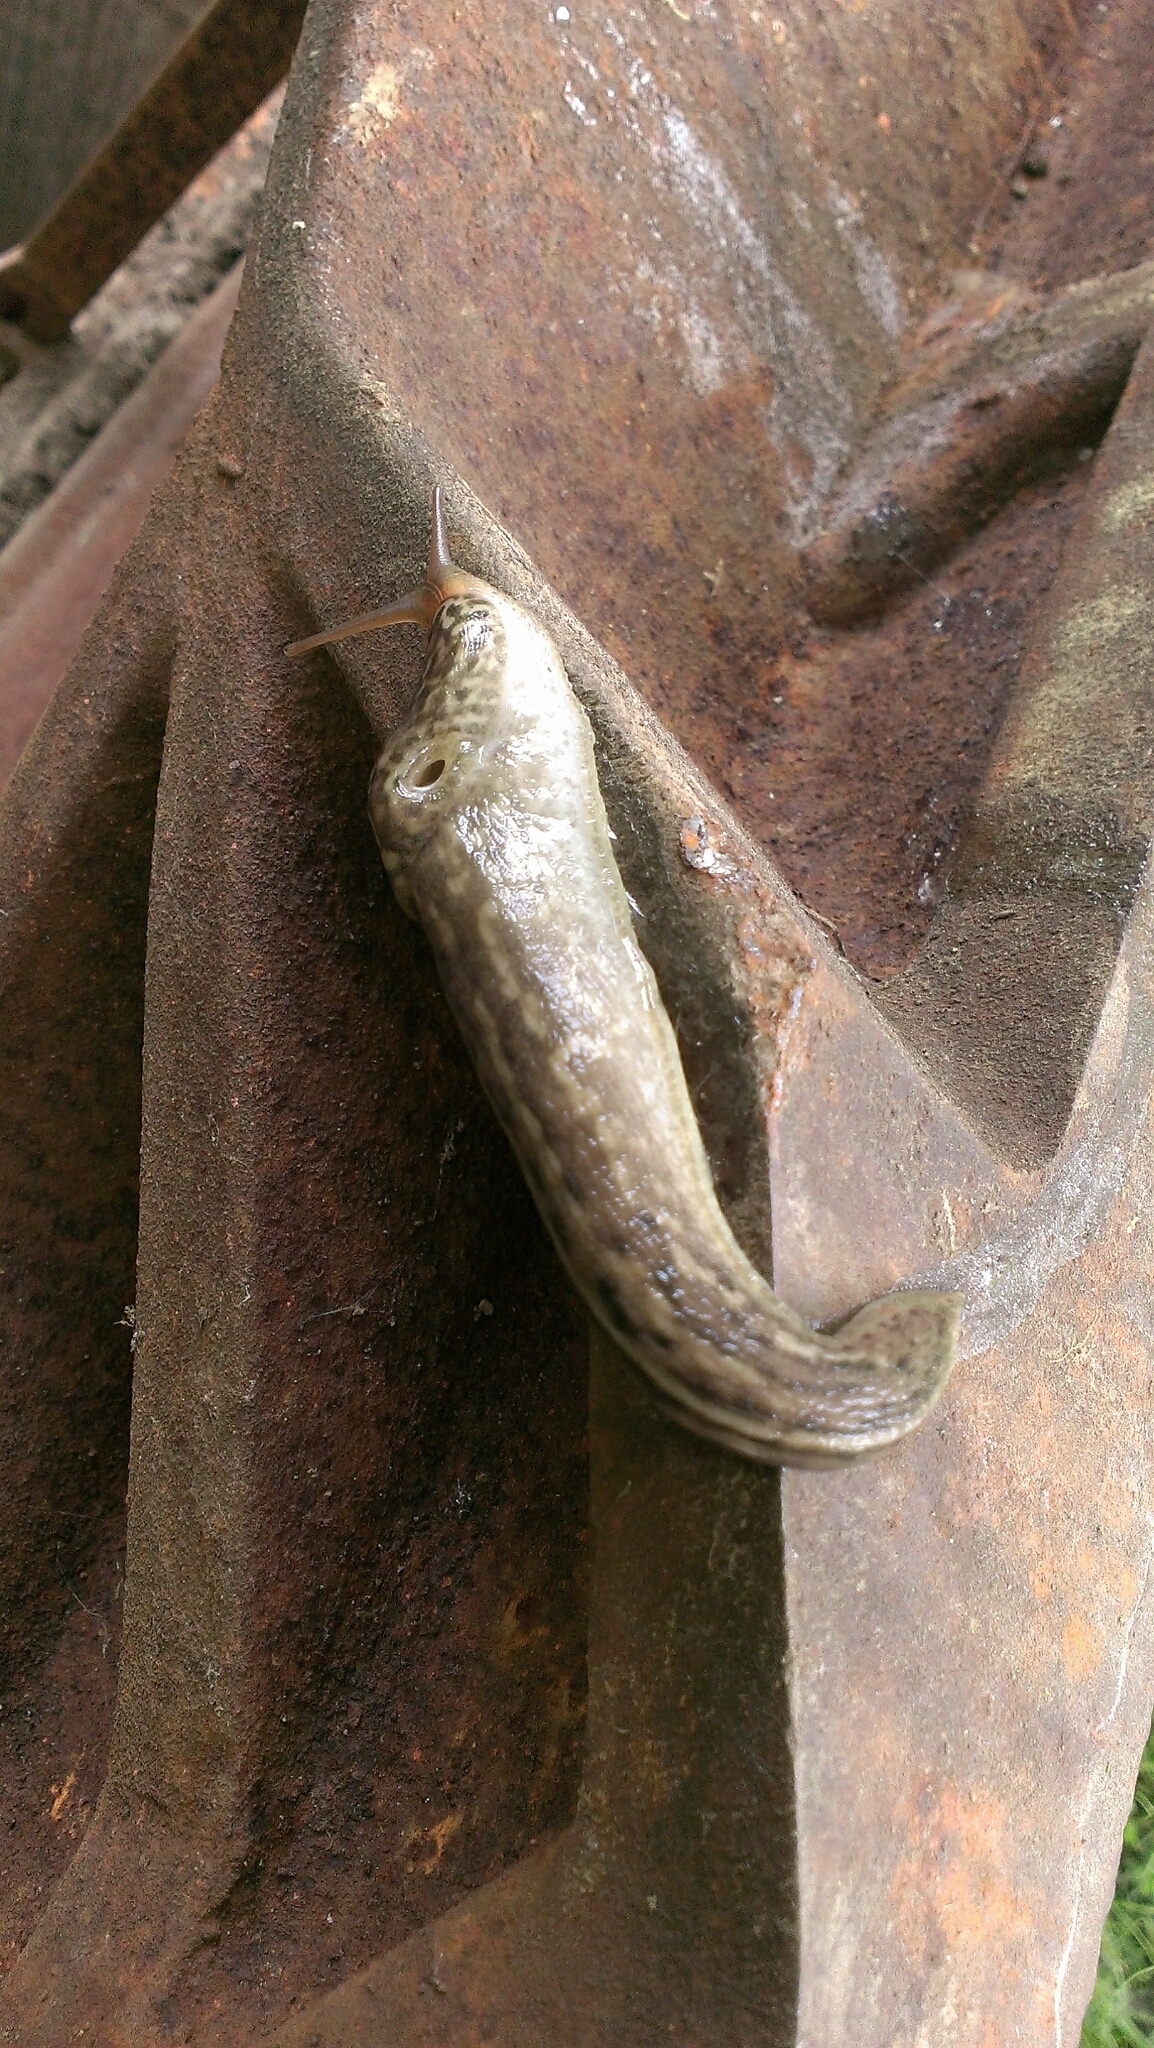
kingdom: Animalia
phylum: Mollusca
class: Gastropoda
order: Stylommatophora
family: Limacidae
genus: Limax
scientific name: Limax maximus
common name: Great grey slug
